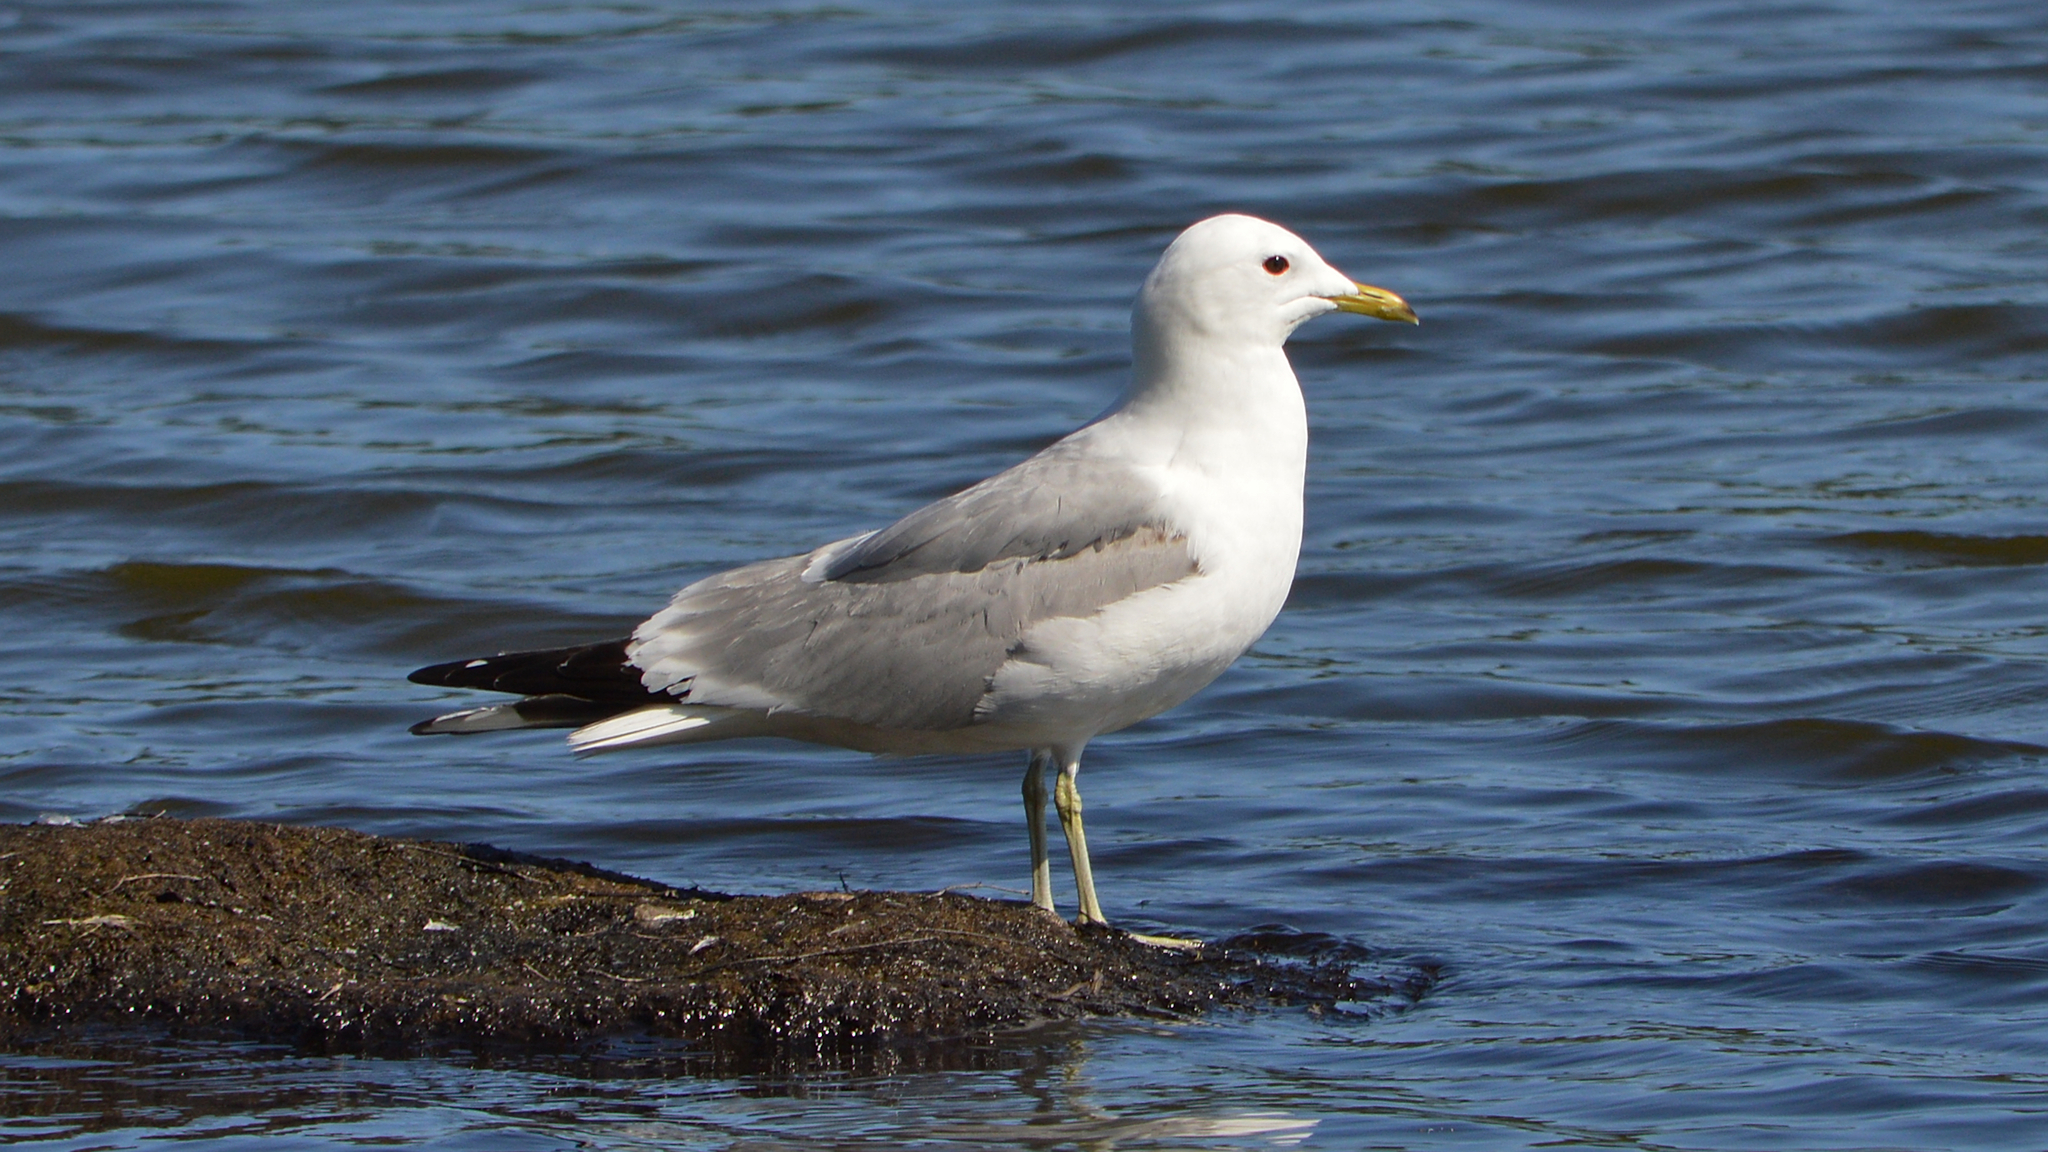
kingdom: Animalia
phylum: Chordata
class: Aves
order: Charadriiformes
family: Laridae
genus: Larus
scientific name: Larus canus
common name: Mew gull
